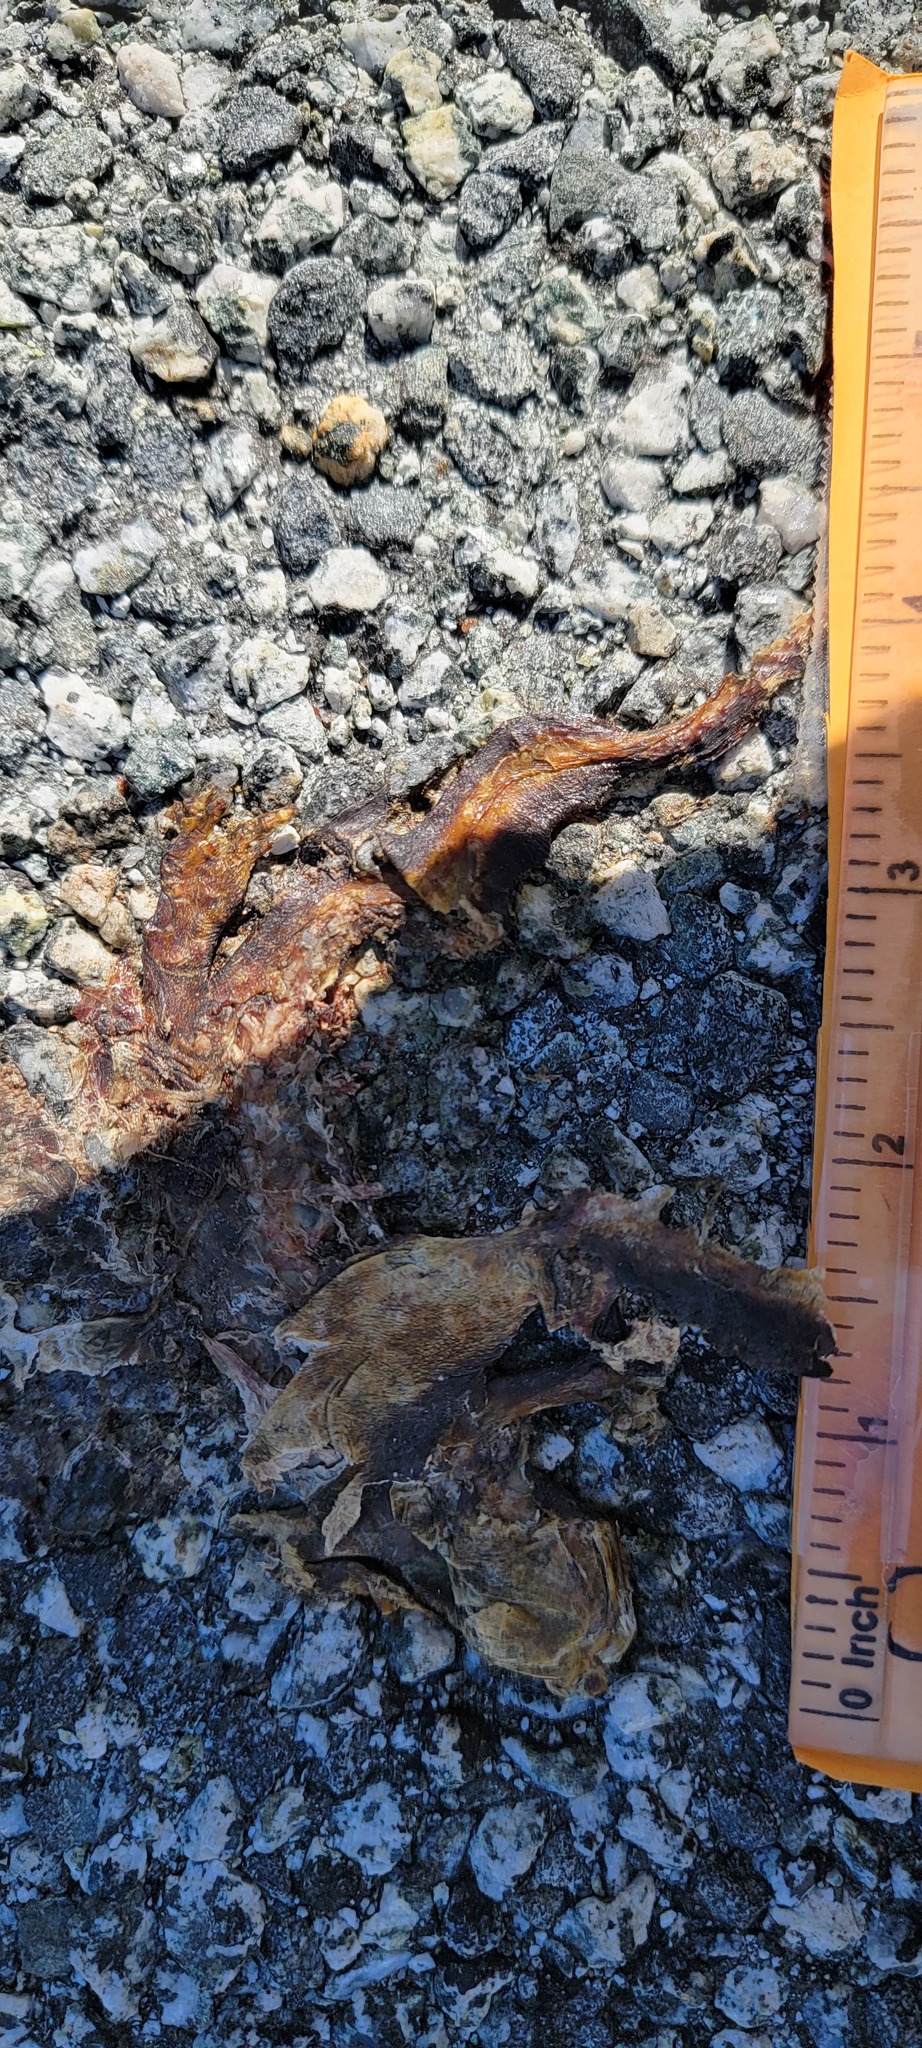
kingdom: Animalia
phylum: Chordata
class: Amphibia
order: Caudata
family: Salamandridae
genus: Taricha
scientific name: Taricha
